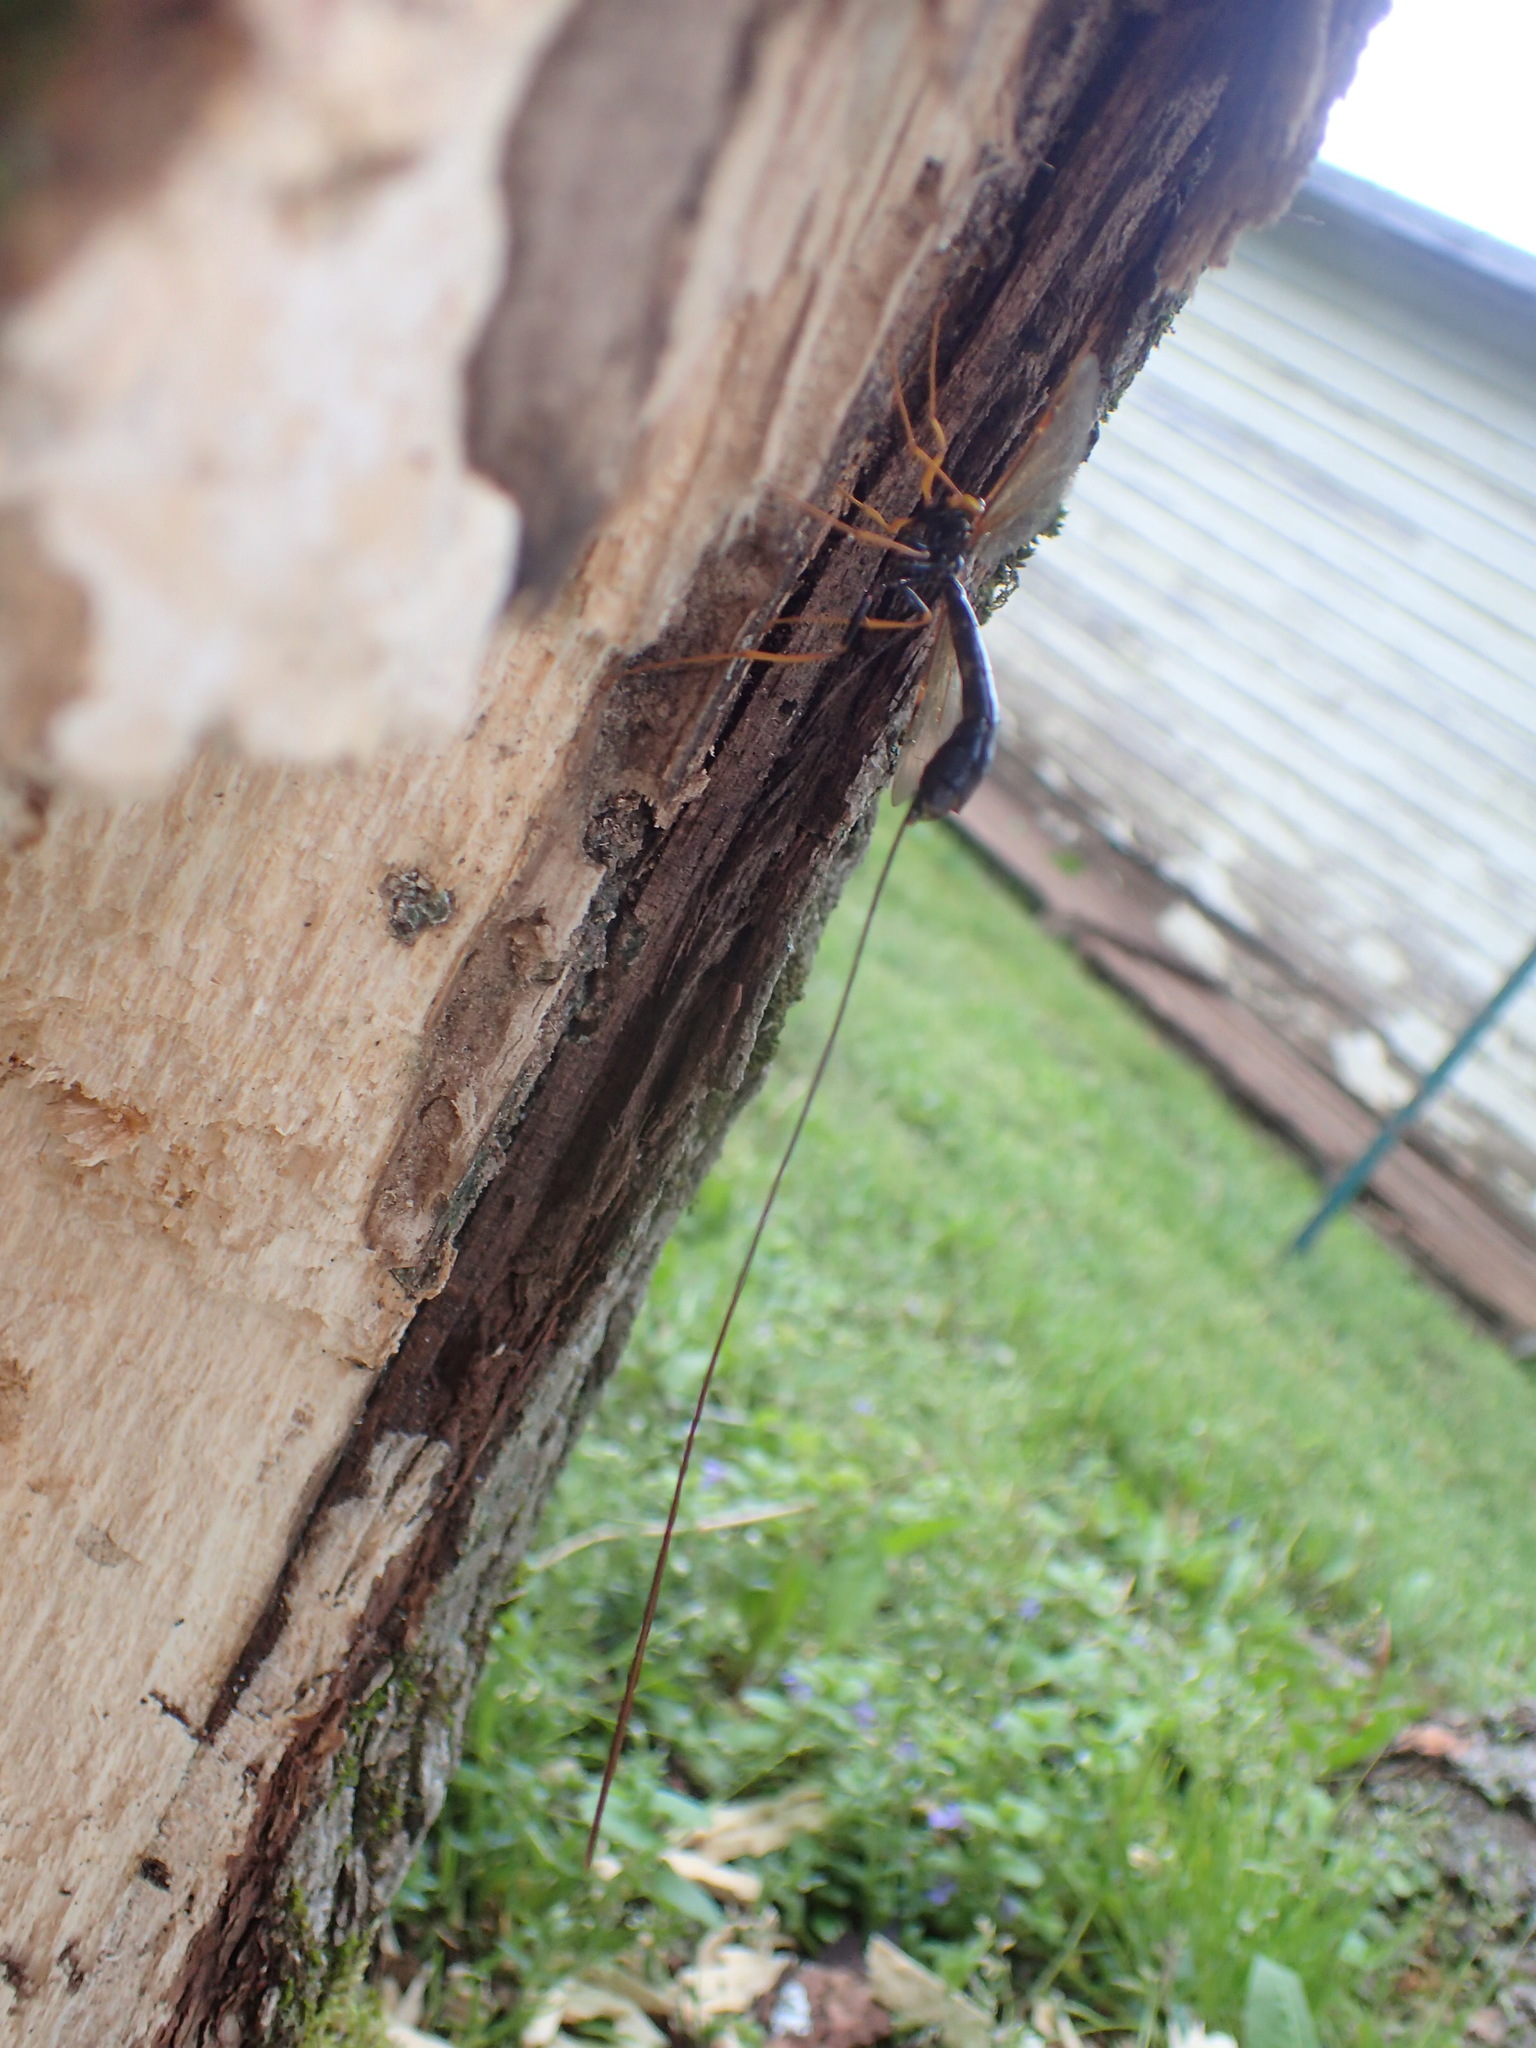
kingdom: Animalia
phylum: Arthropoda
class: Insecta
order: Hymenoptera
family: Ichneumonidae
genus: Megarhyssa
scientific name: Megarhyssa atrata
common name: Black giant ichneumonid wasp
